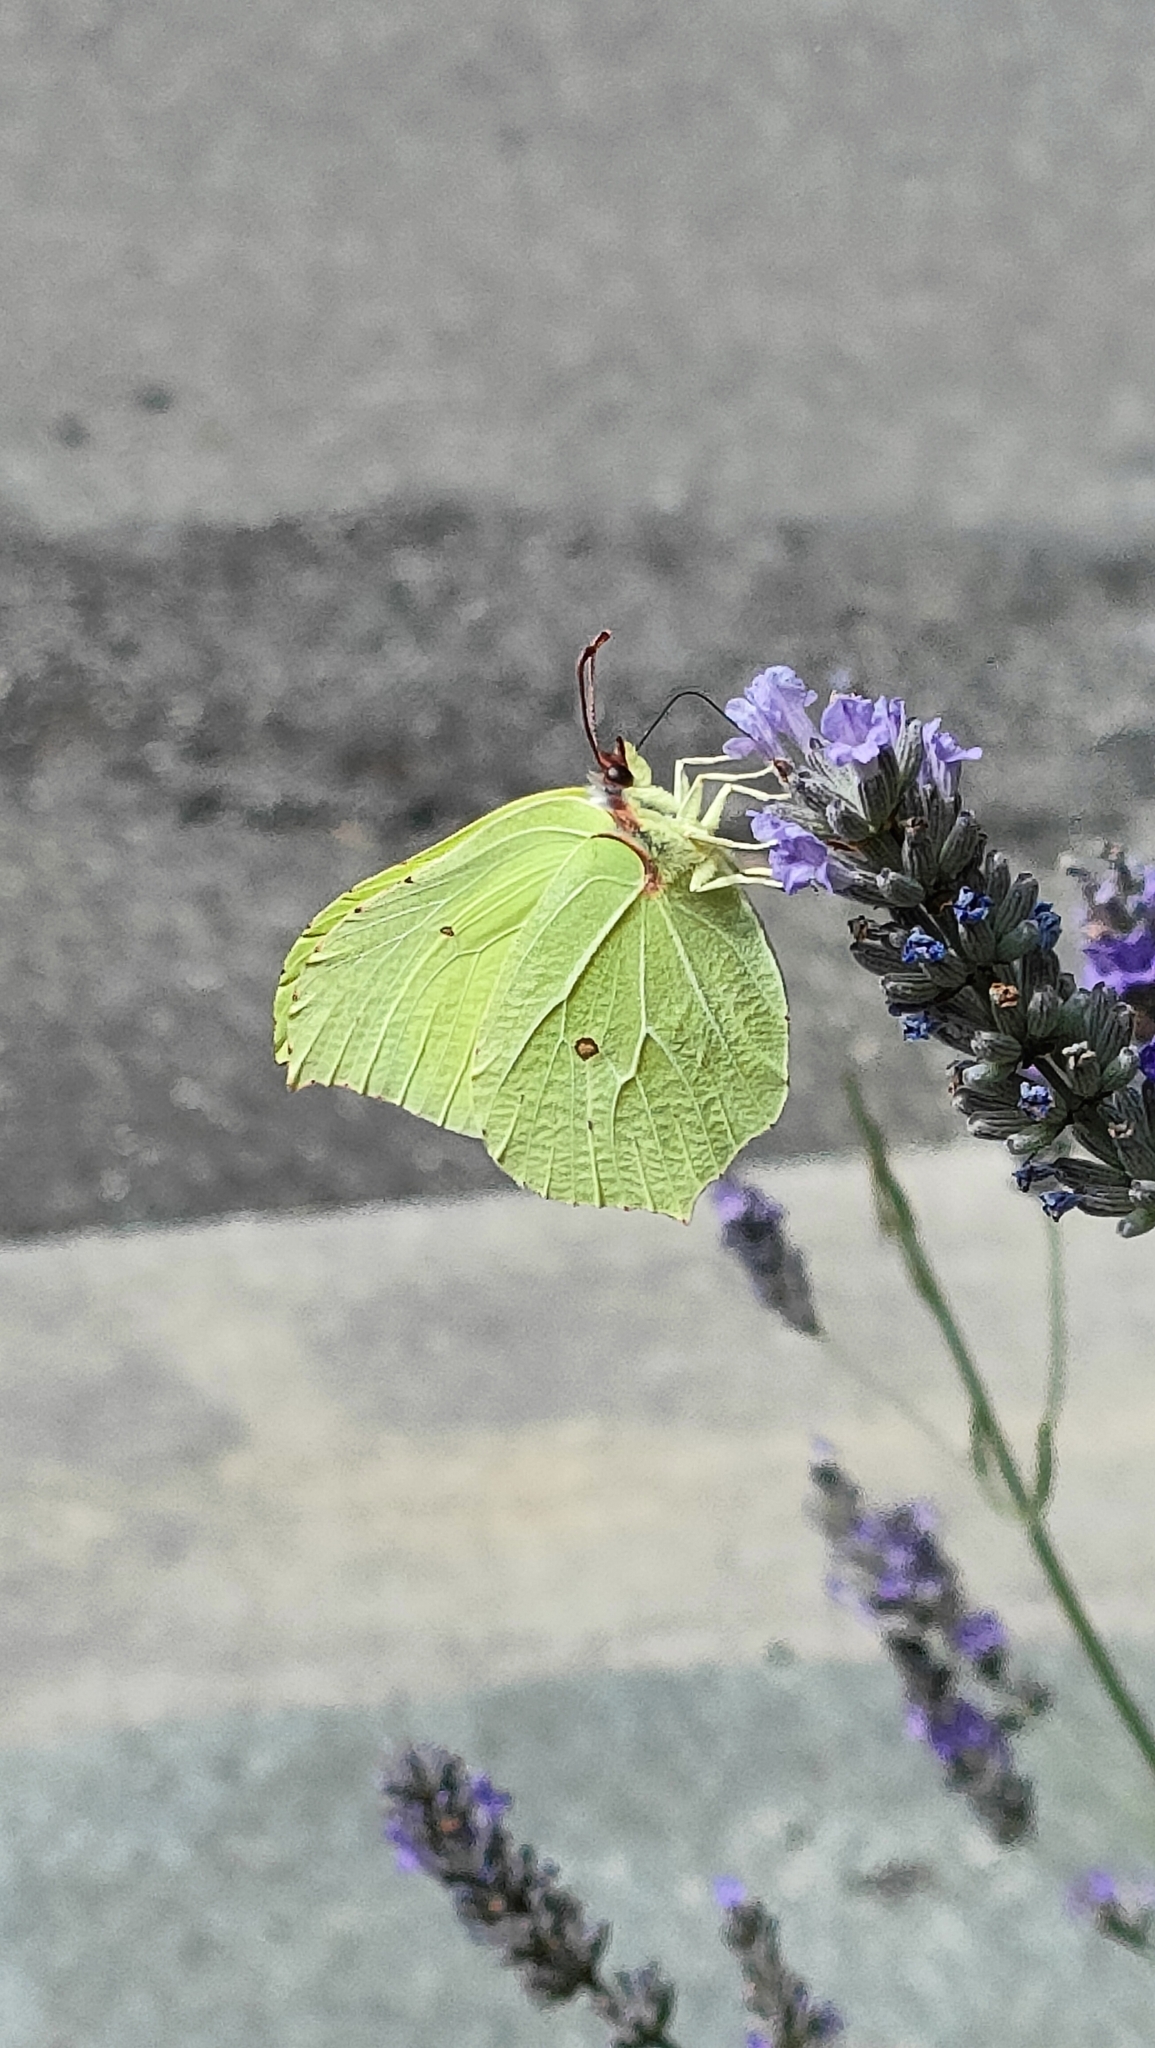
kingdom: Animalia
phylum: Arthropoda
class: Insecta
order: Lepidoptera
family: Pieridae
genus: Gonepteryx
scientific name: Gonepteryx rhamni
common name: Brimstone
